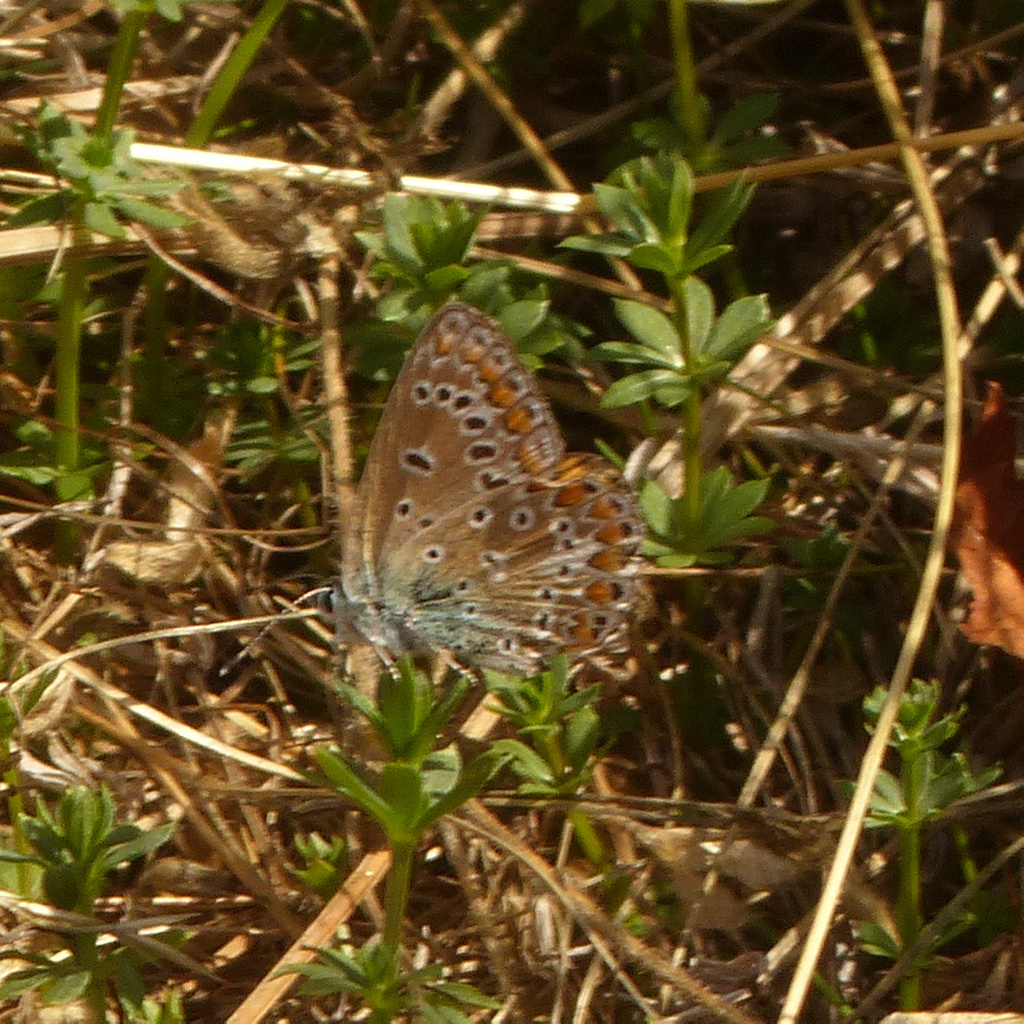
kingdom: Animalia
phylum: Arthropoda
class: Insecta
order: Lepidoptera
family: Lycaenidae
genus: Polyommatus
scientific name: Polyommatus icarus
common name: Common blue
